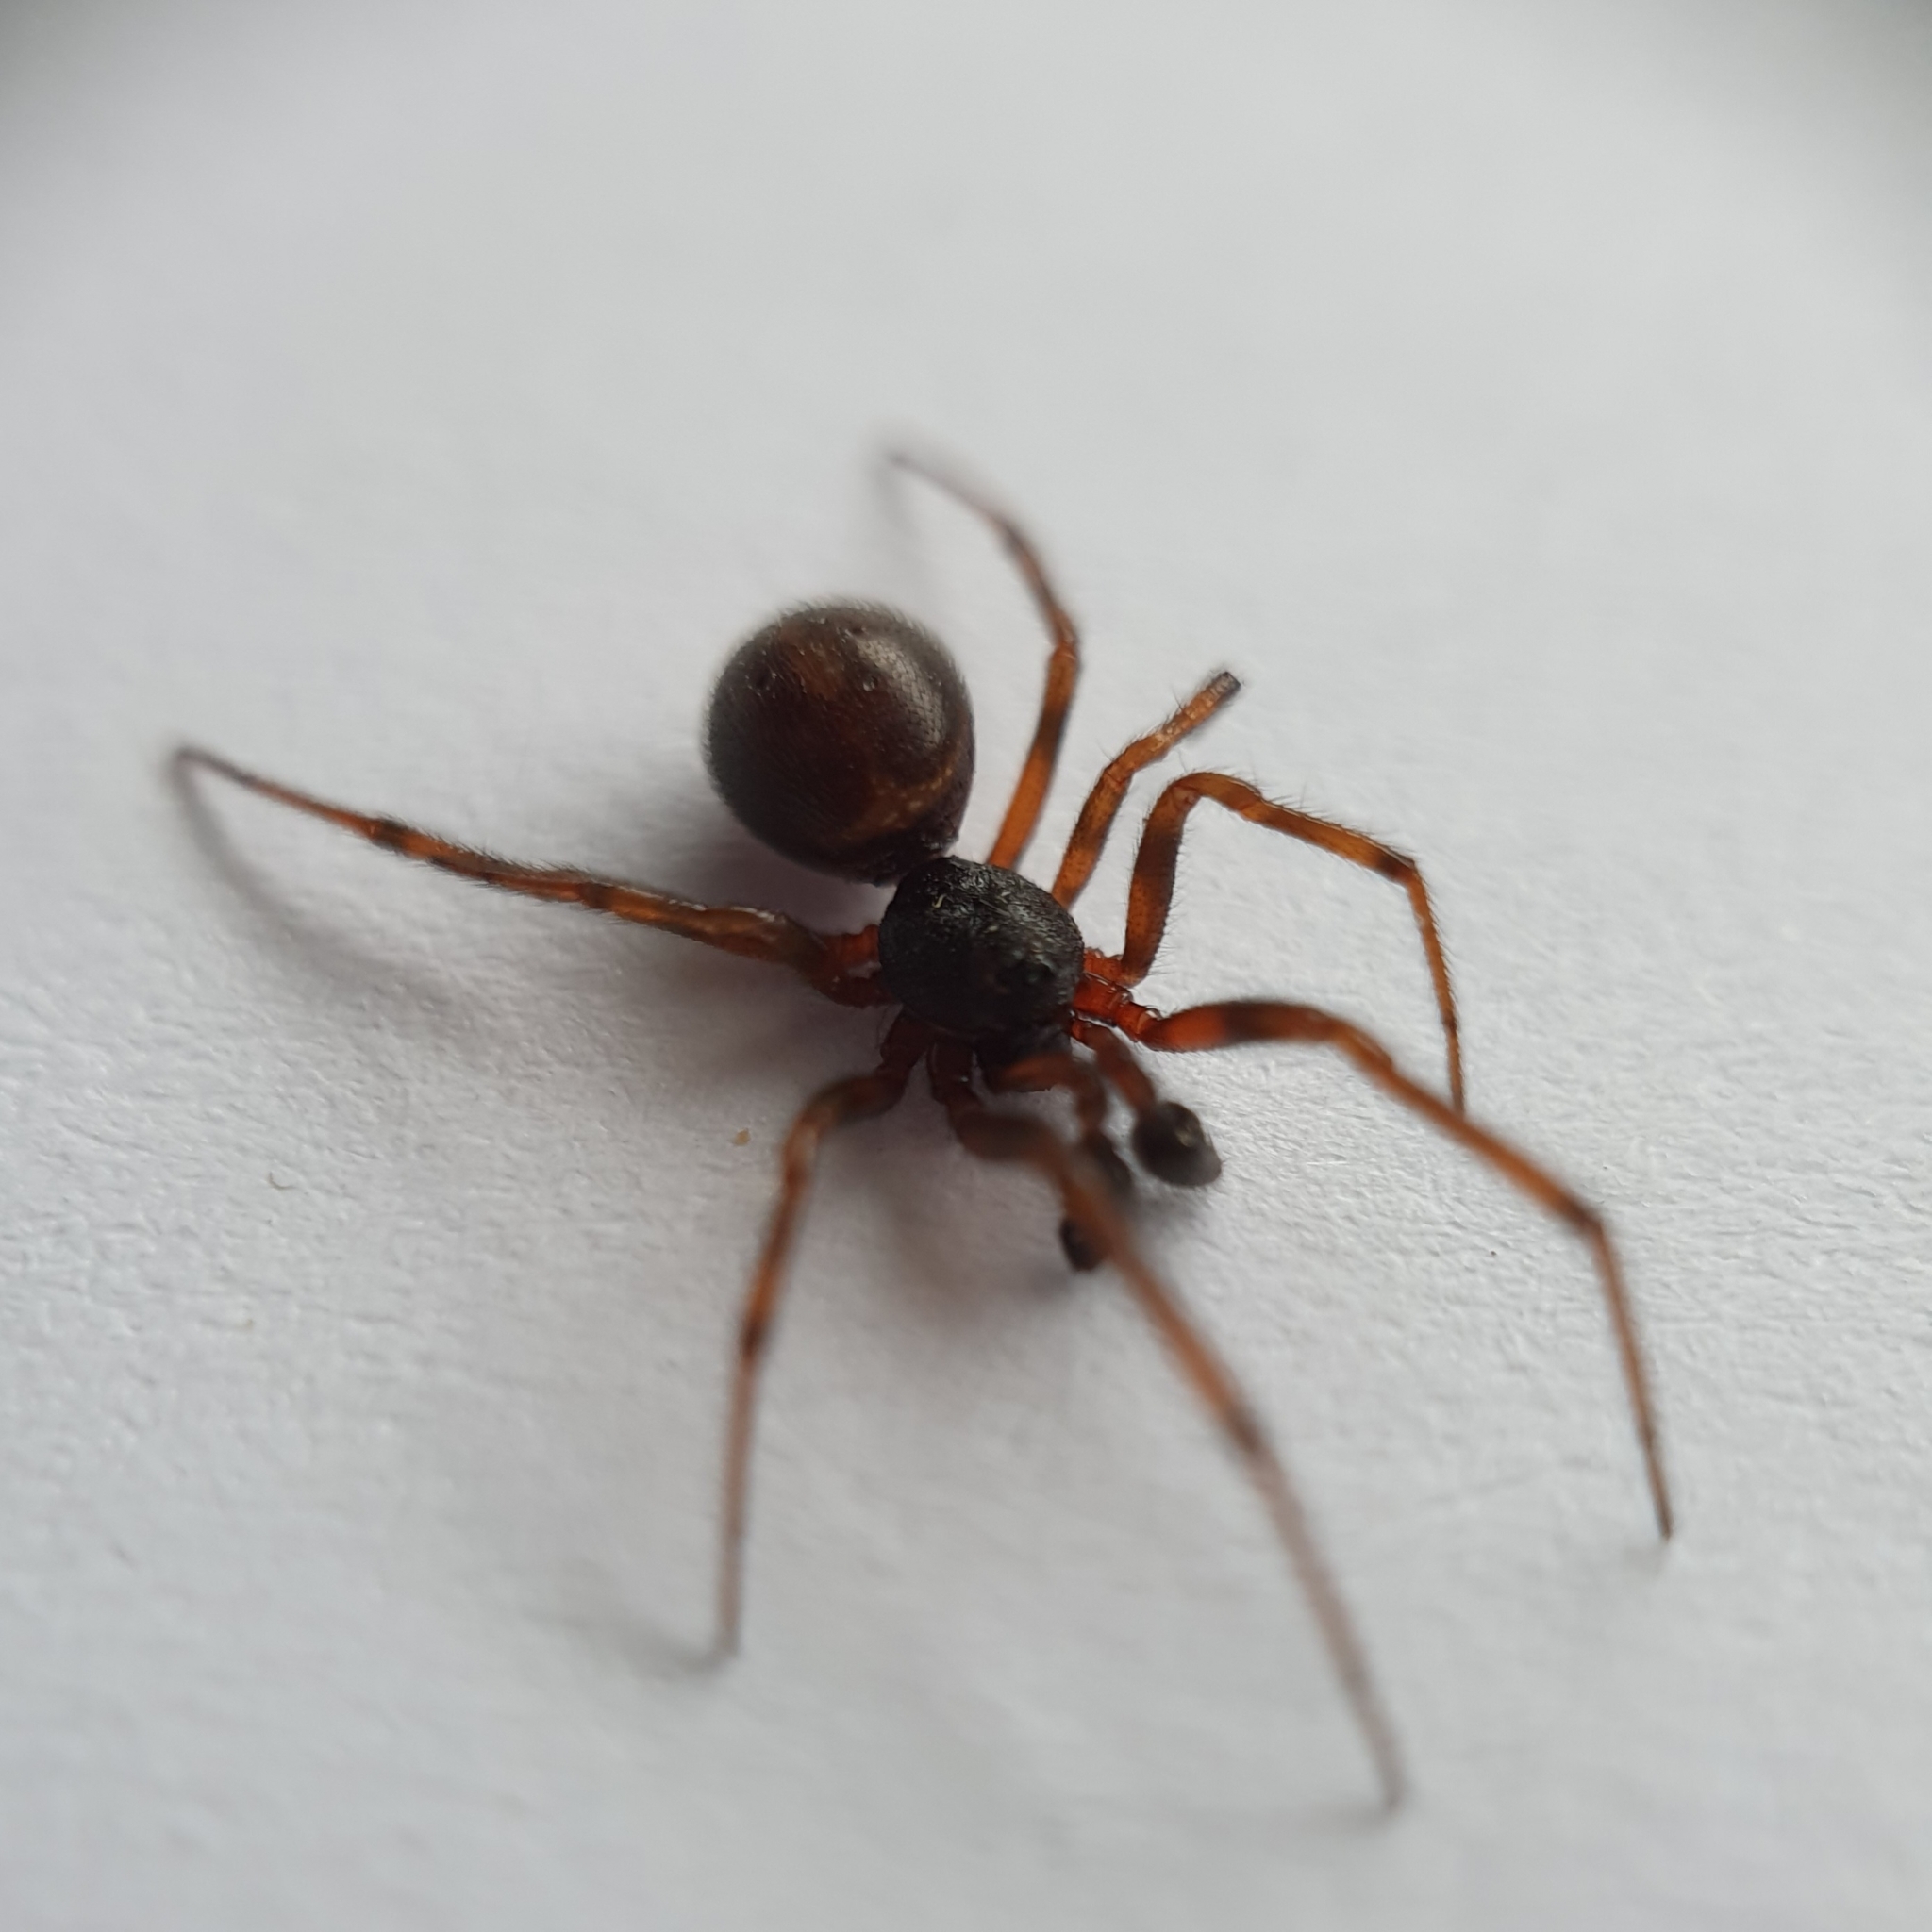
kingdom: Animalia
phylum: Arthropoda
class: Arachnida
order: Araneae
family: Theridiidae
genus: Steatoda
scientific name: Steatoda bipunctata
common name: False widow
